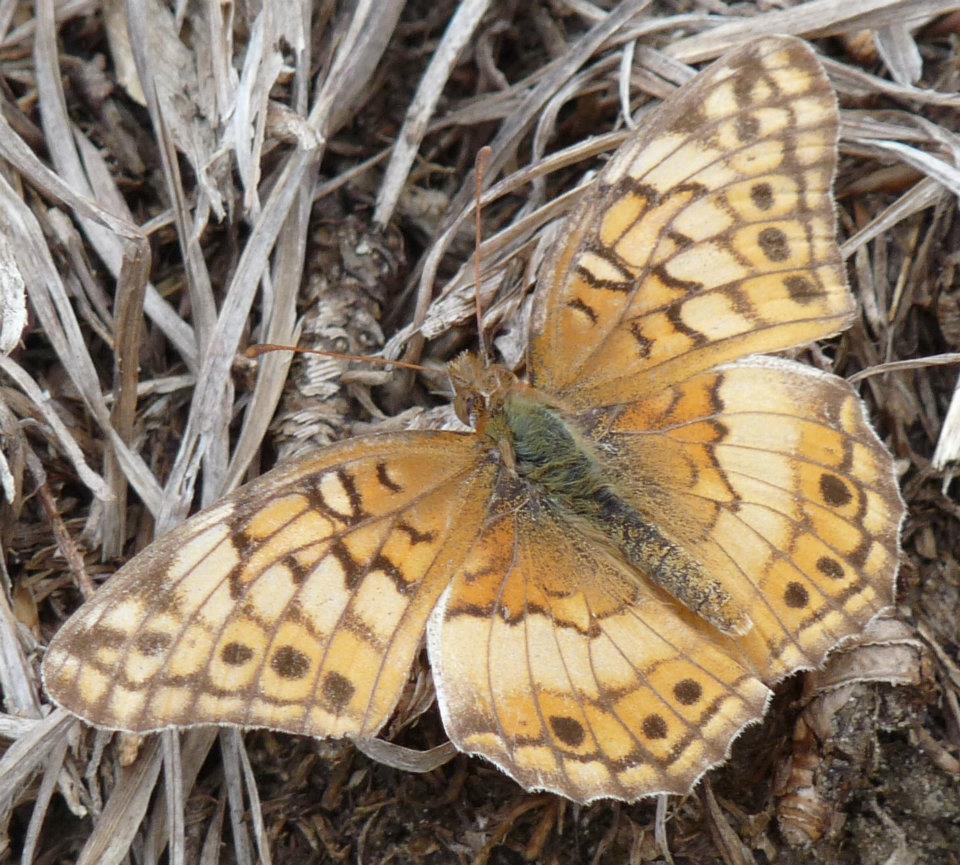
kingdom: Animalia
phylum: Arthropoda
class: Insecta
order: Lepidoptera
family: Nymphalidae
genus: Euptoieta
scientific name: Euptoieta claudia
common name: Variegated fritillary
